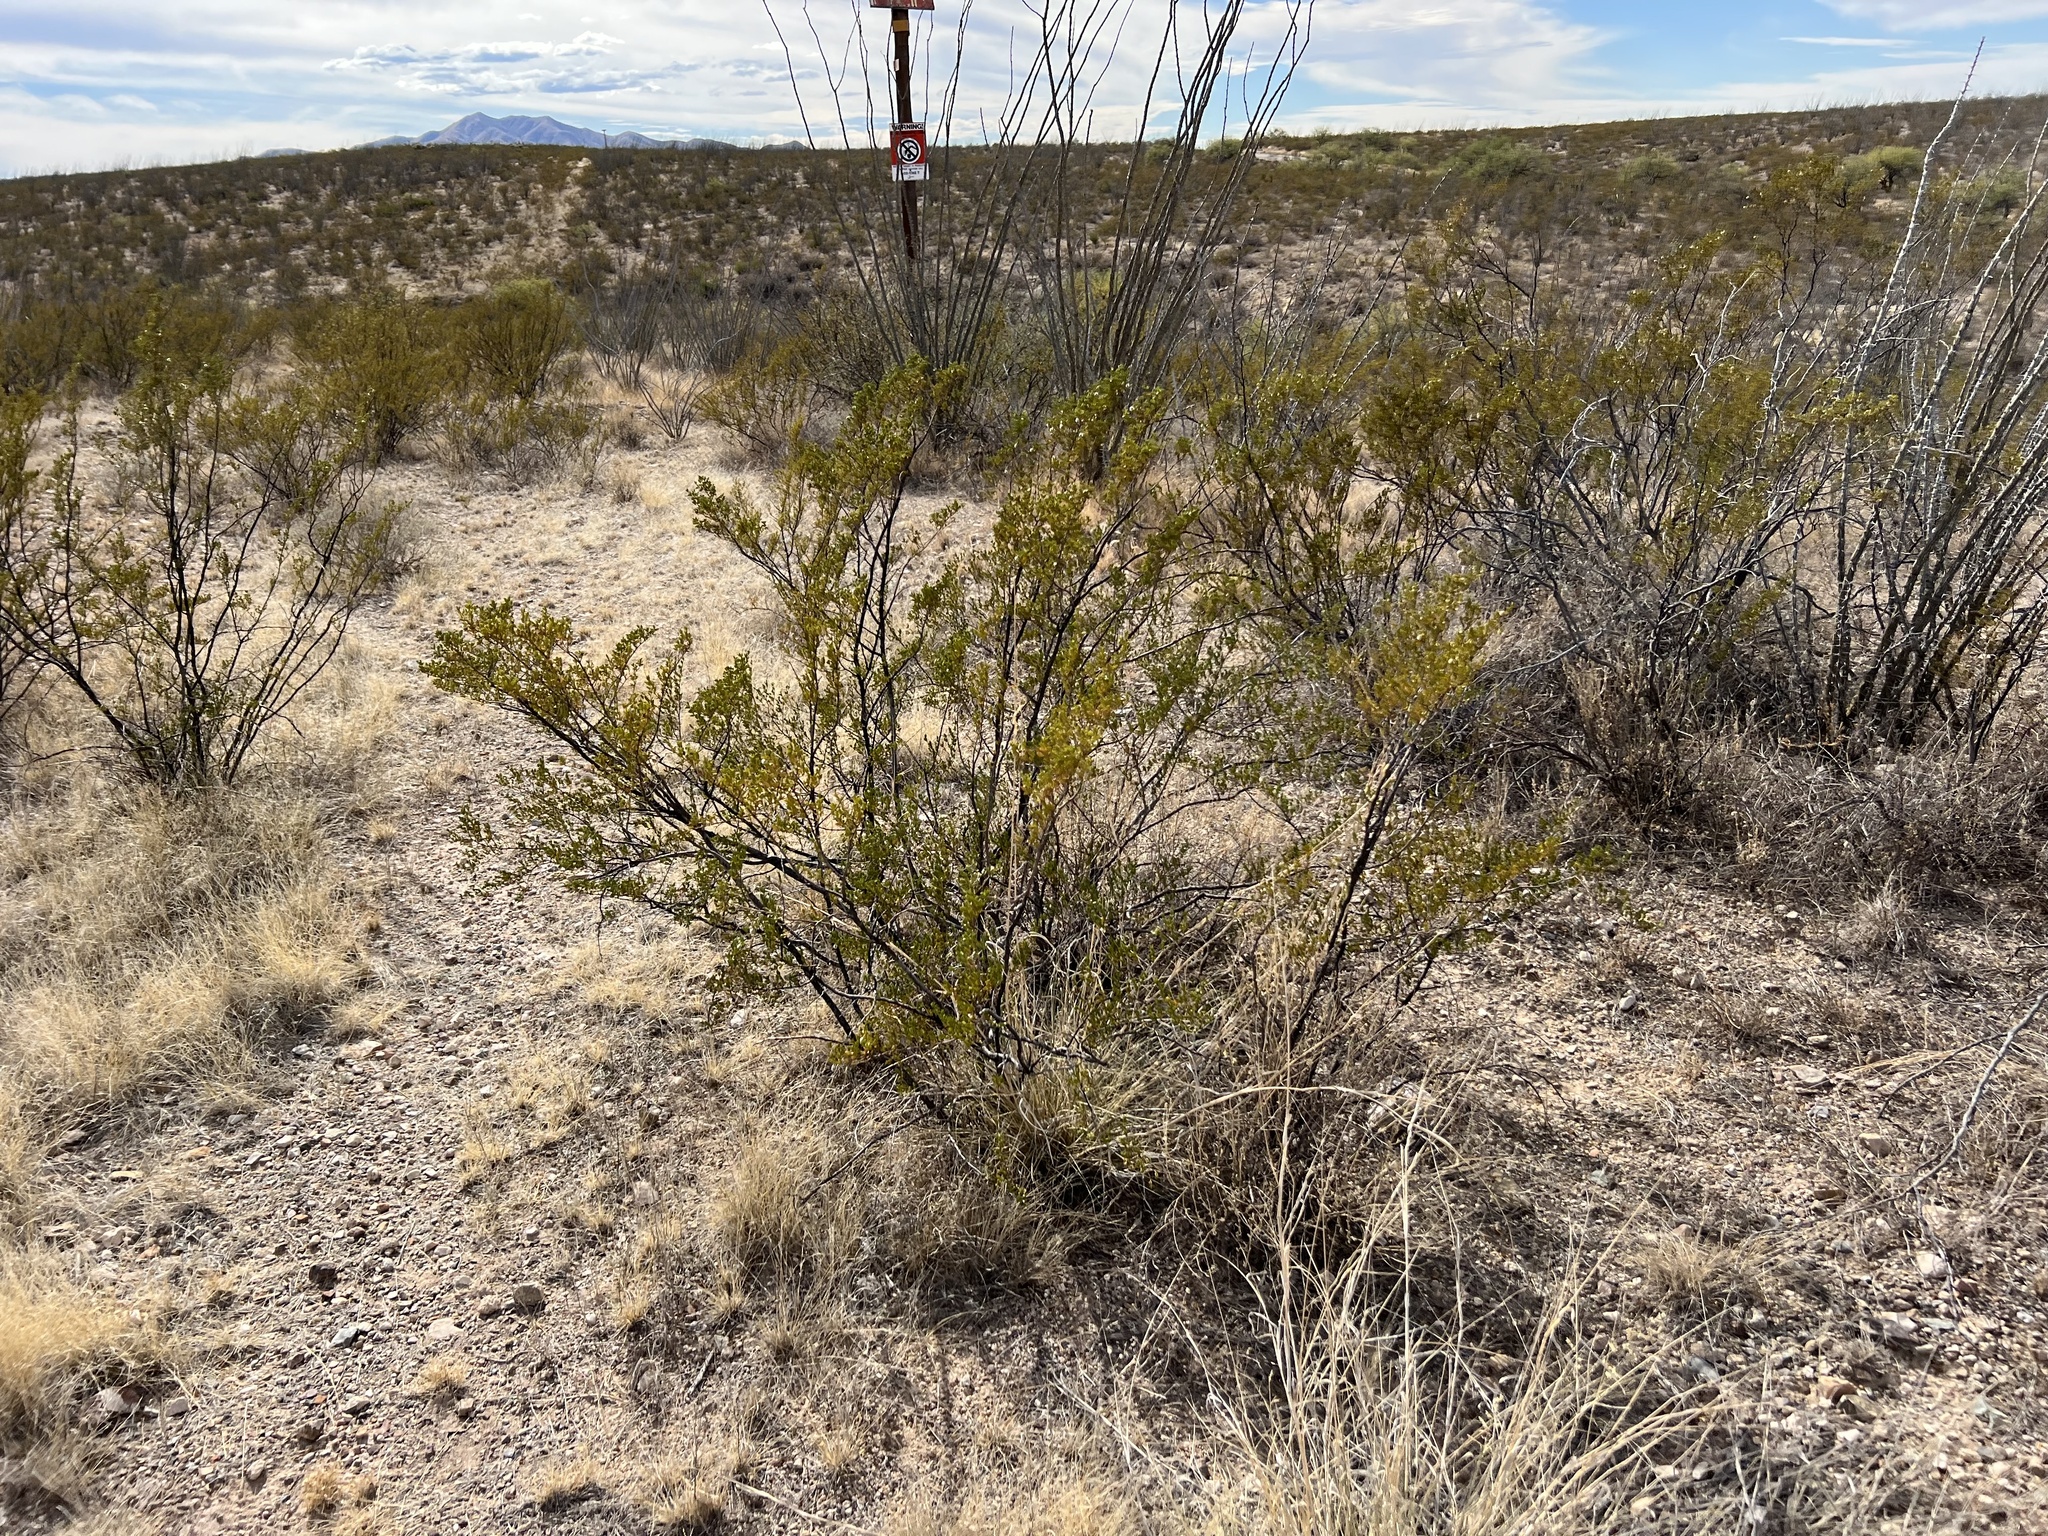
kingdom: Plantae
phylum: Tracheophyta
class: Magnoliopsida
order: Zygophyllales
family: Zygophyllaceae
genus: Larrea
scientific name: Larrea tridentata
